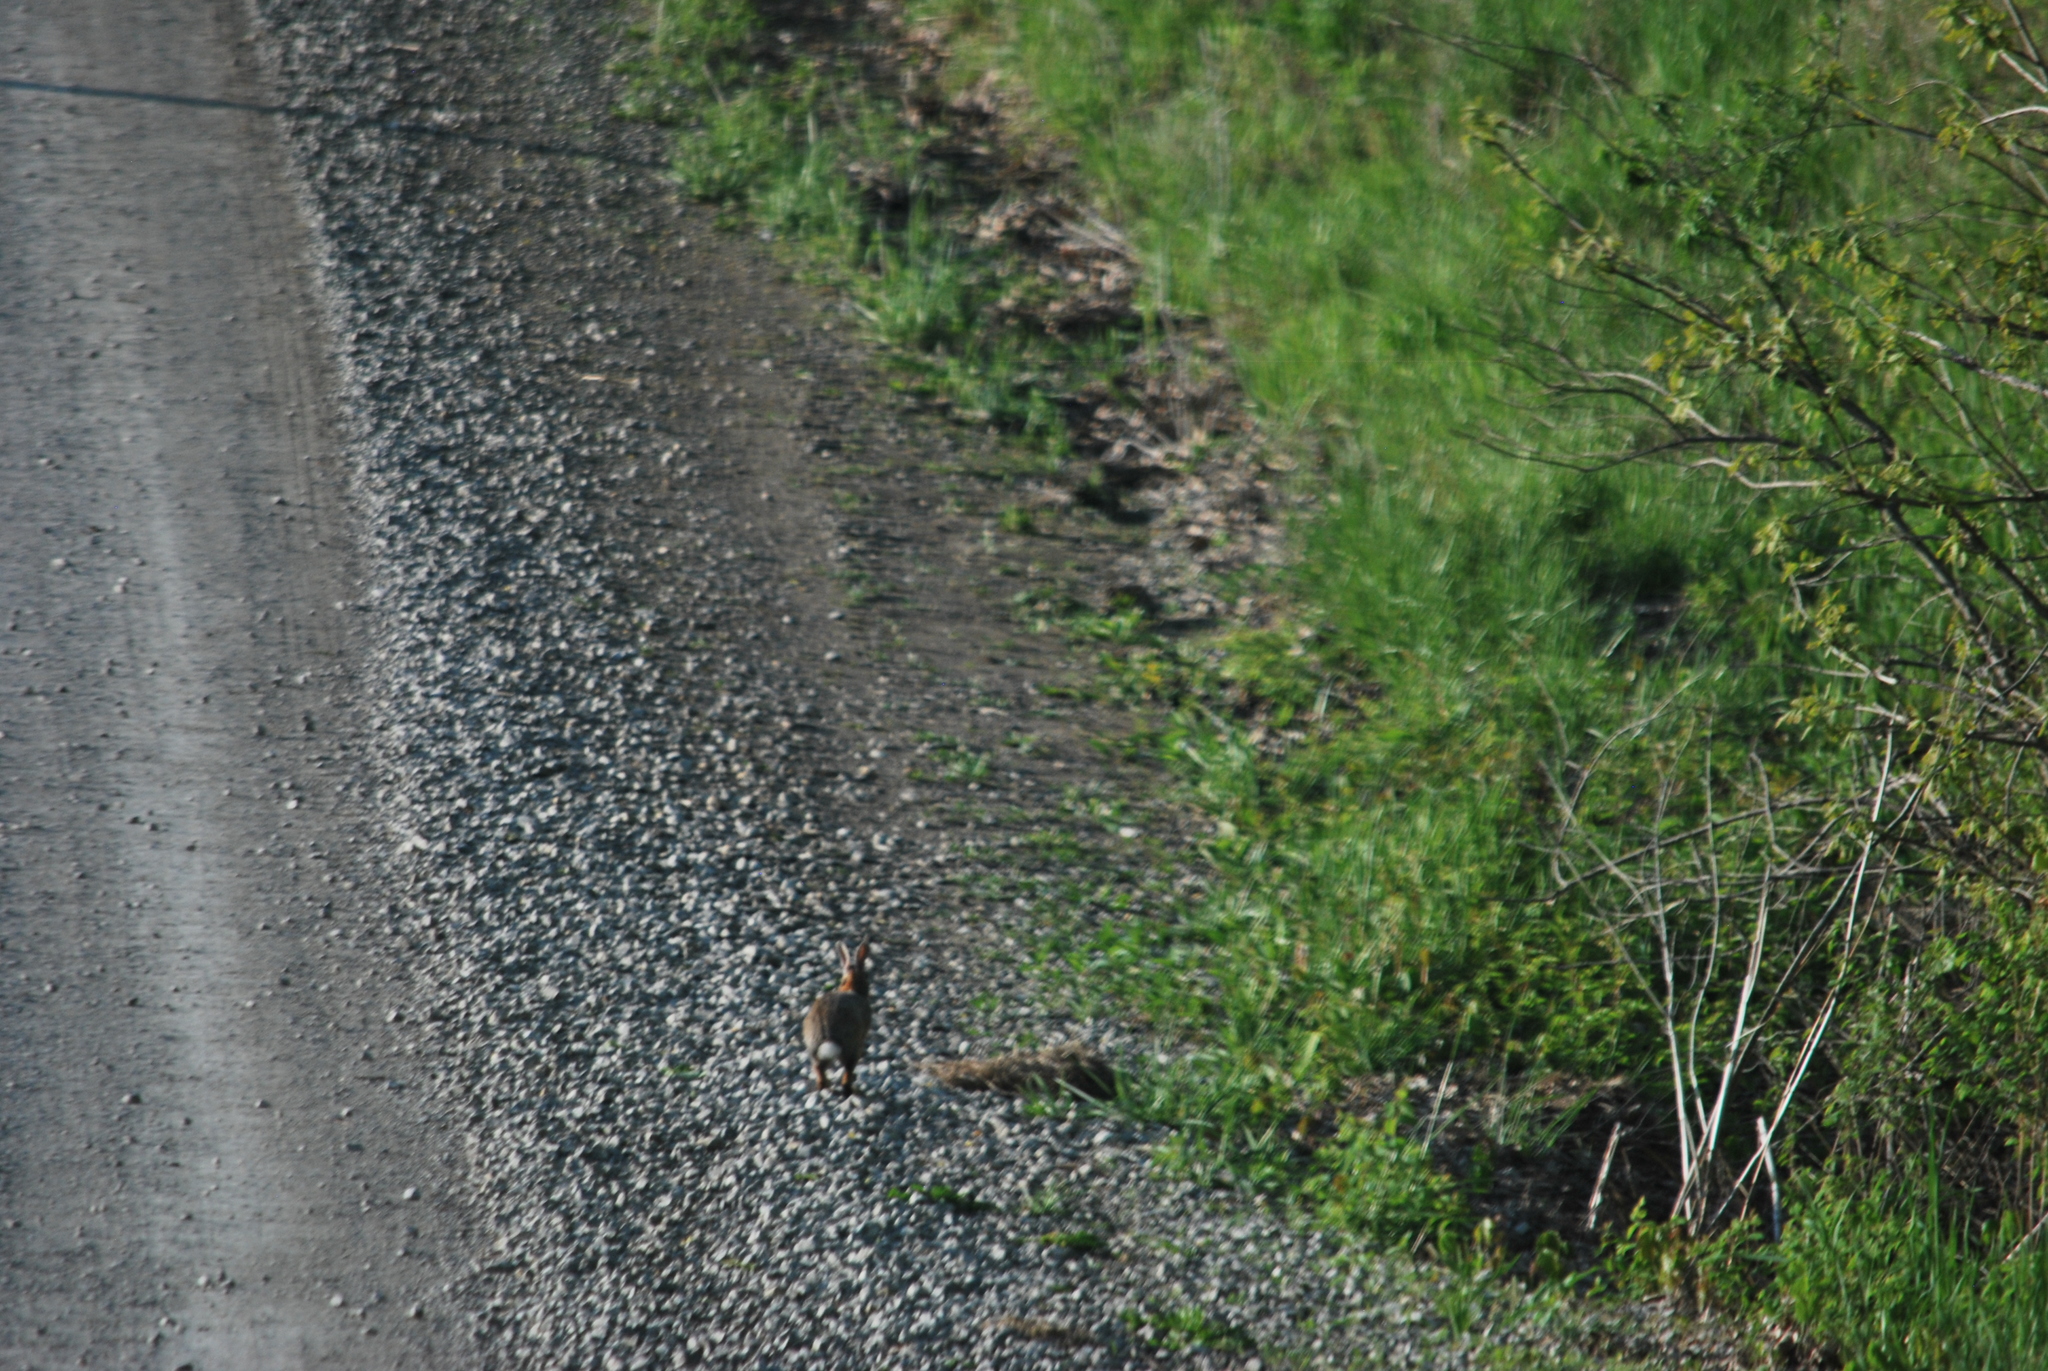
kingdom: Animalia
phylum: Chordata
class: Mammalia
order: Lagomorpha
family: Leporidae
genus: Sylvilagus
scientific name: Sylvilagus floridanus
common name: Eastern cottontail
